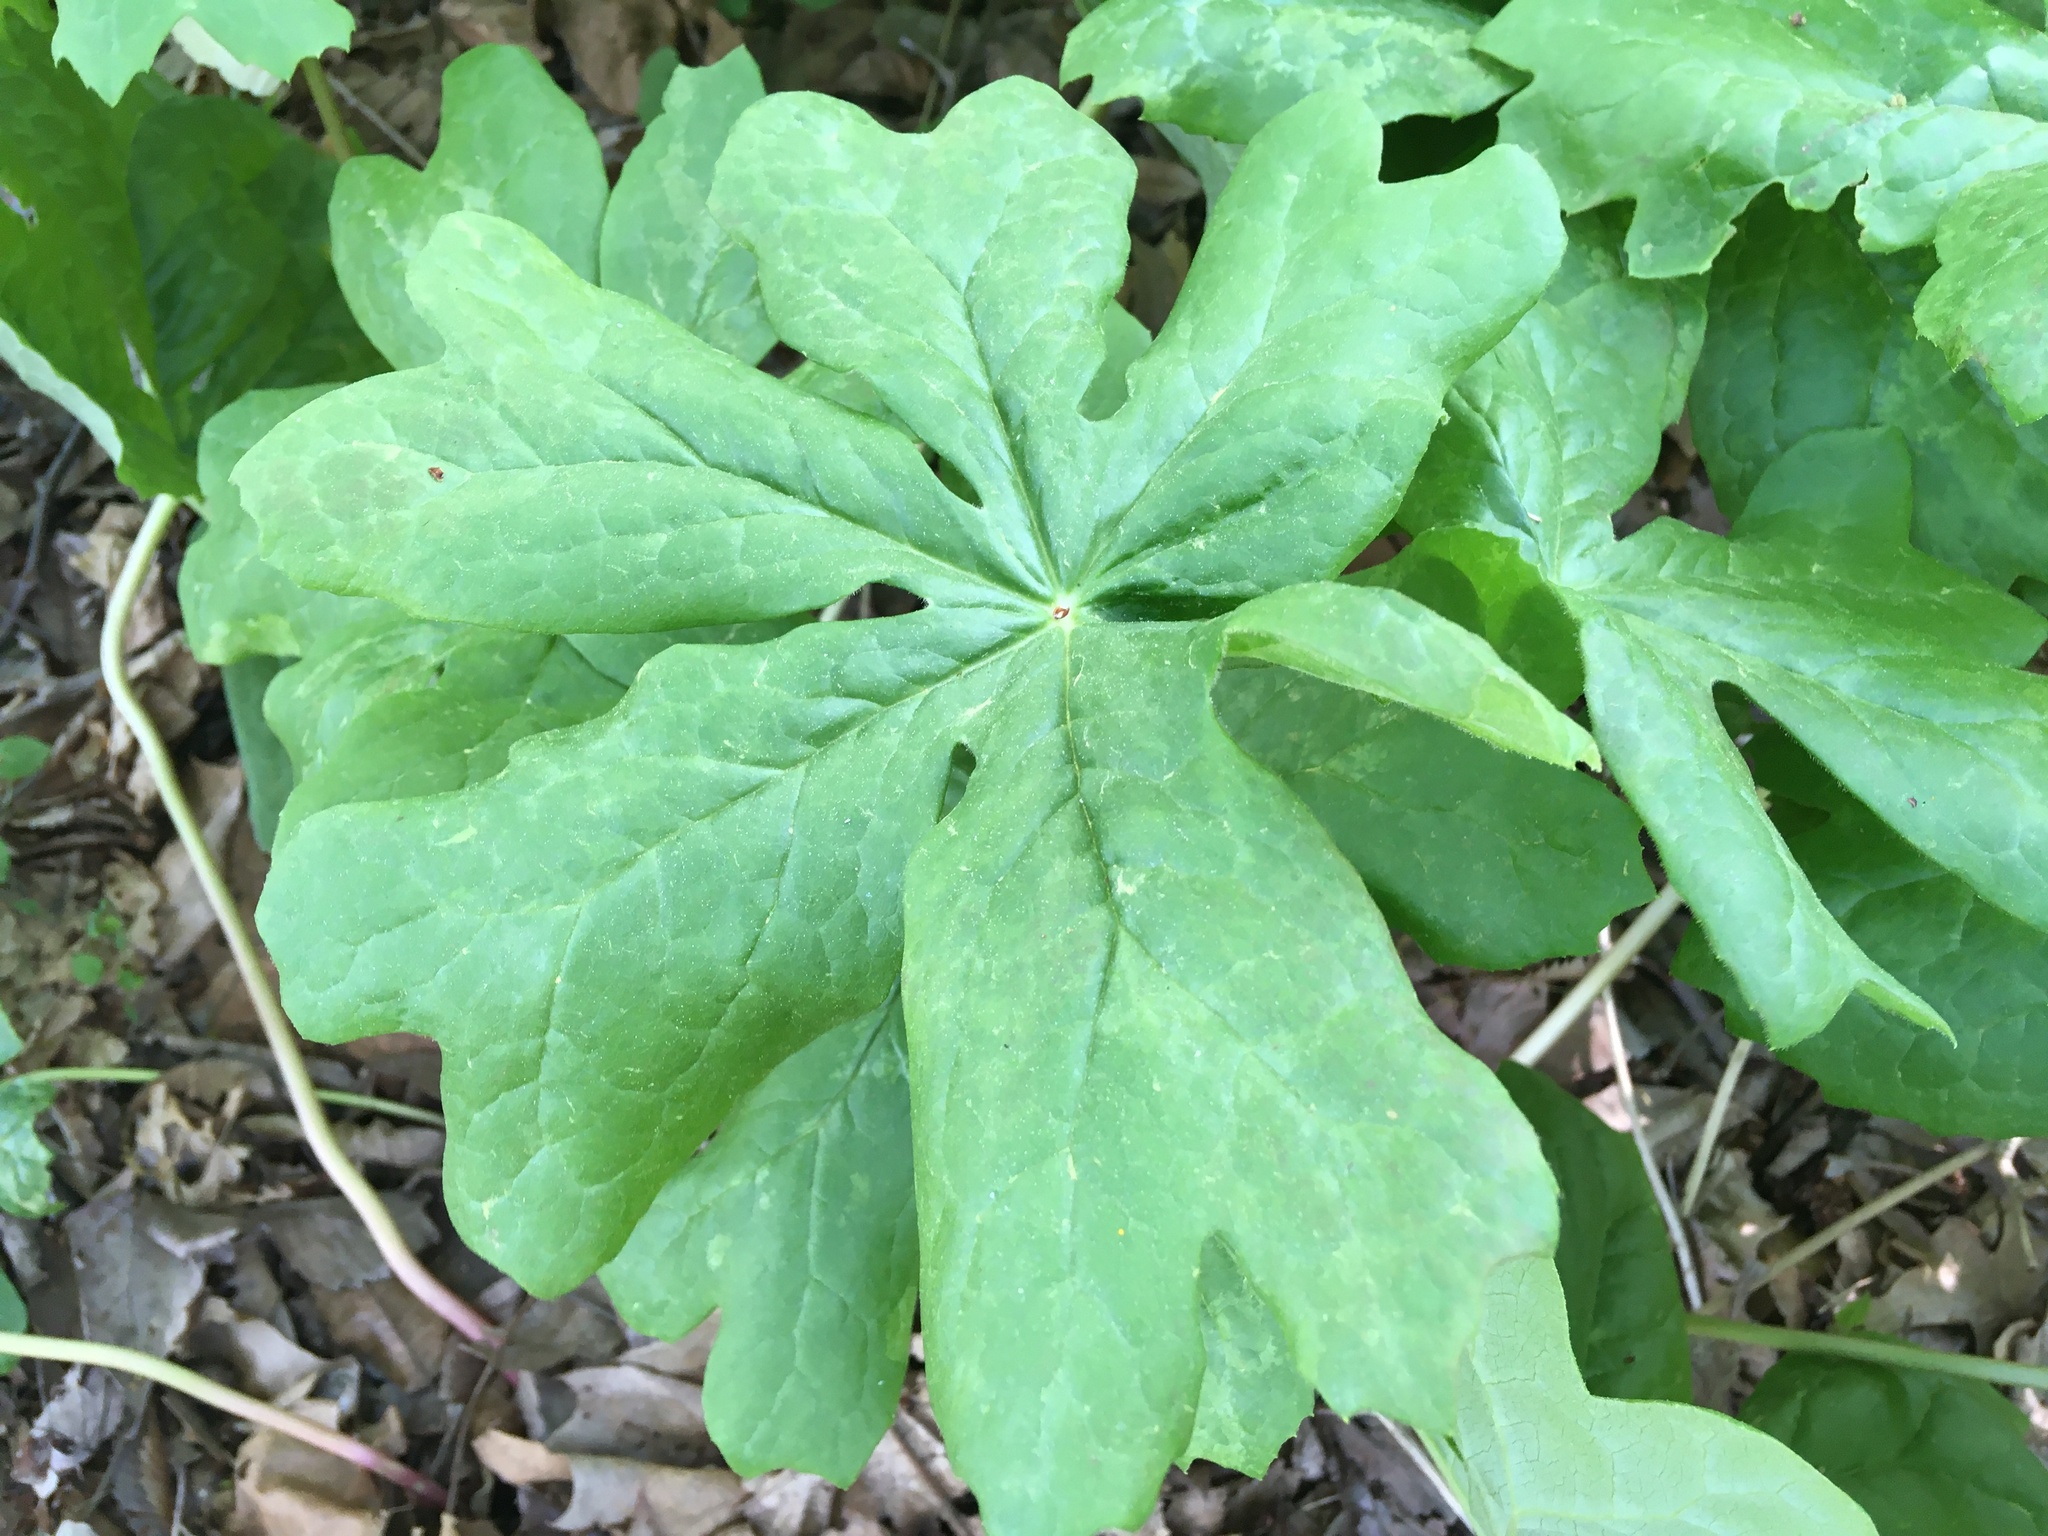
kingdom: Plantae
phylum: Tracheophyta
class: Magnoliopsida
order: Ranunculales
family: Berberidaceae
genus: Podophyllum
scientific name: Podophyllum peltatum
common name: Wild mandrake
